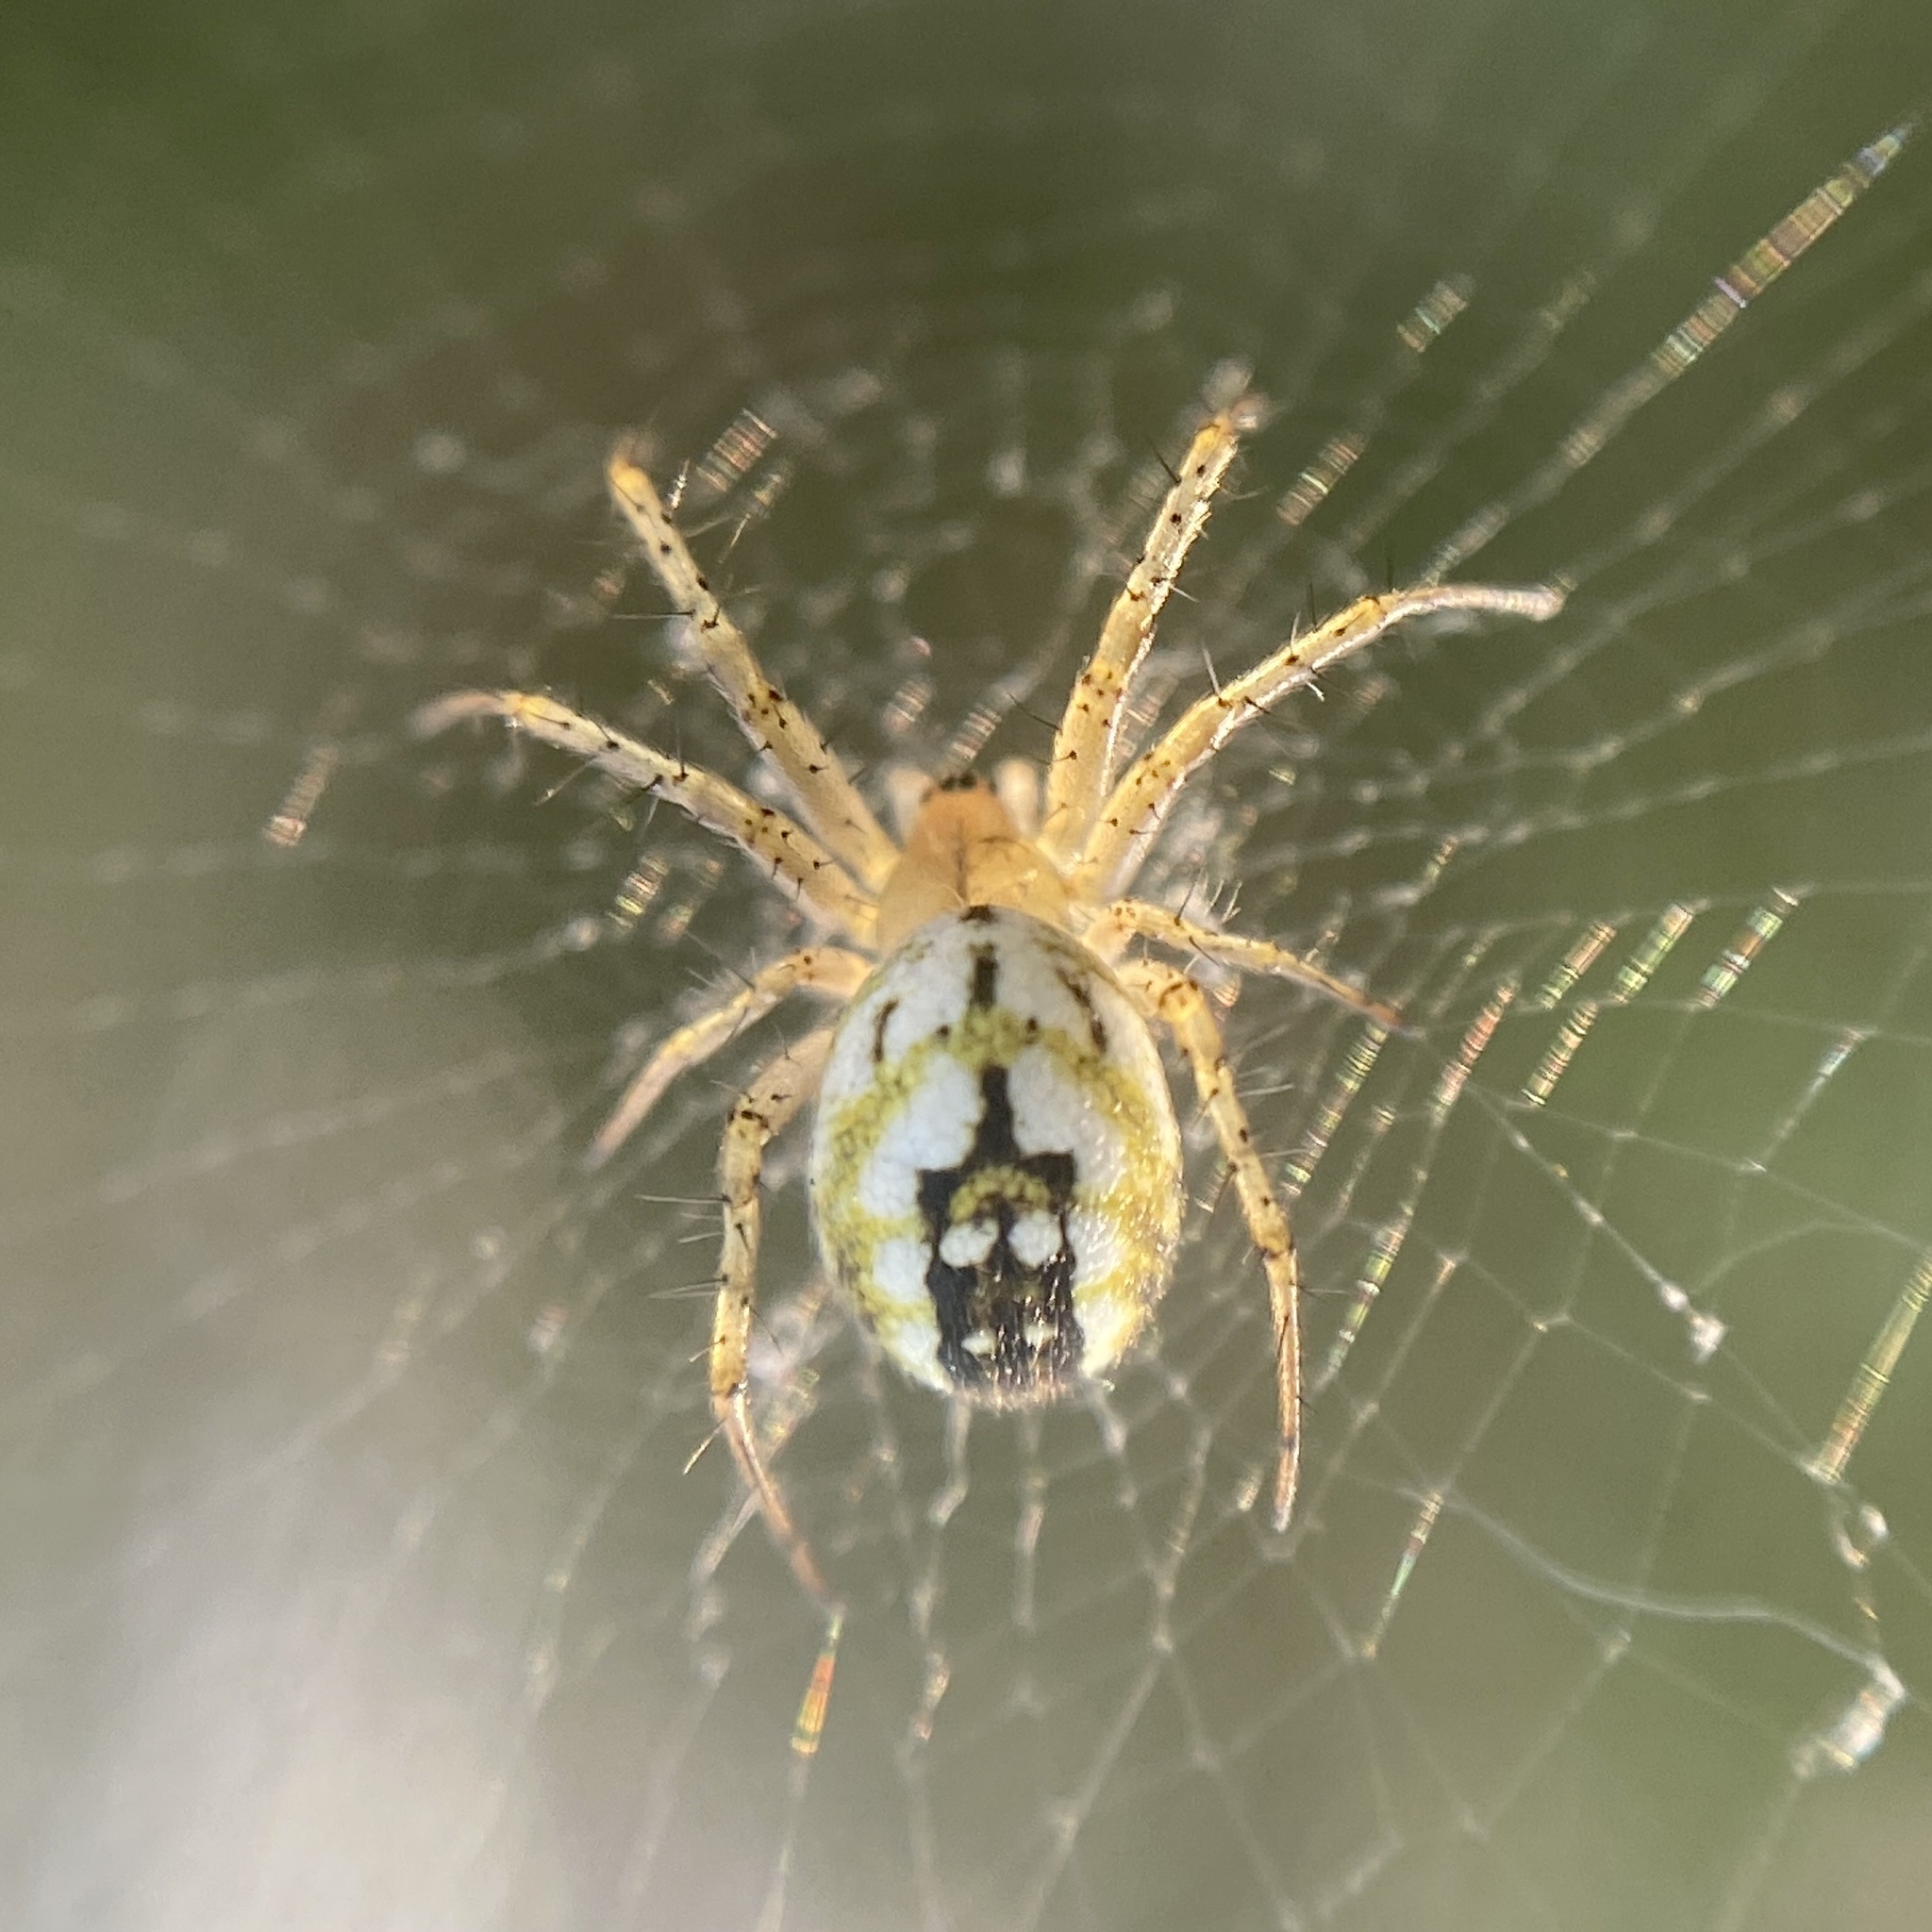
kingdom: Animalia
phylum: Arthropoda
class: Arachnida
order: Araneae
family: Araneidae
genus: Mangora
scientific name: Mangora acalypha
